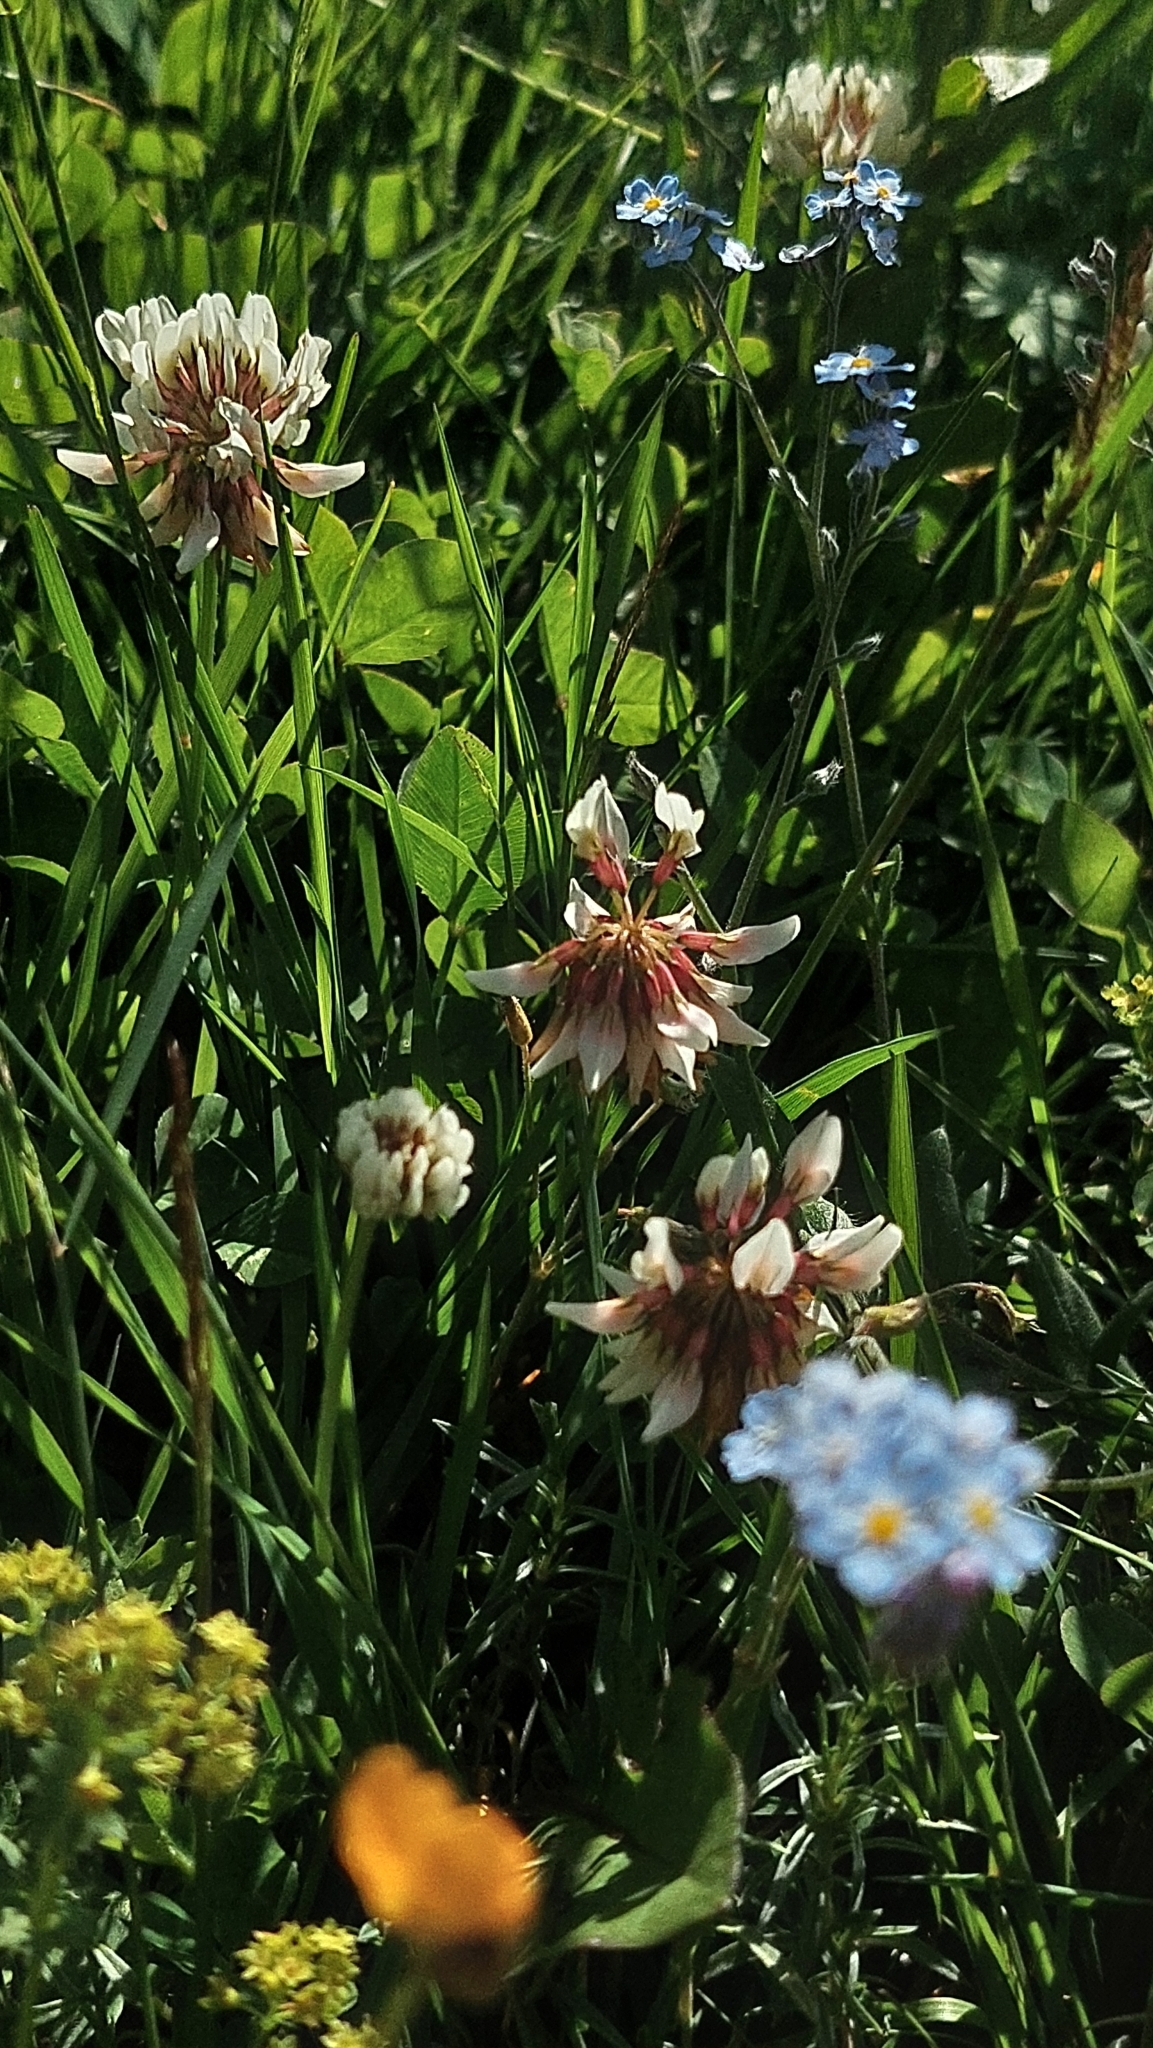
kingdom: Plantae
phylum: Tracheophyta
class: Magnoliopsida
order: Fabales
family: Fabaceae
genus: Trifolium
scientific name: Trifolium repens
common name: White clover
